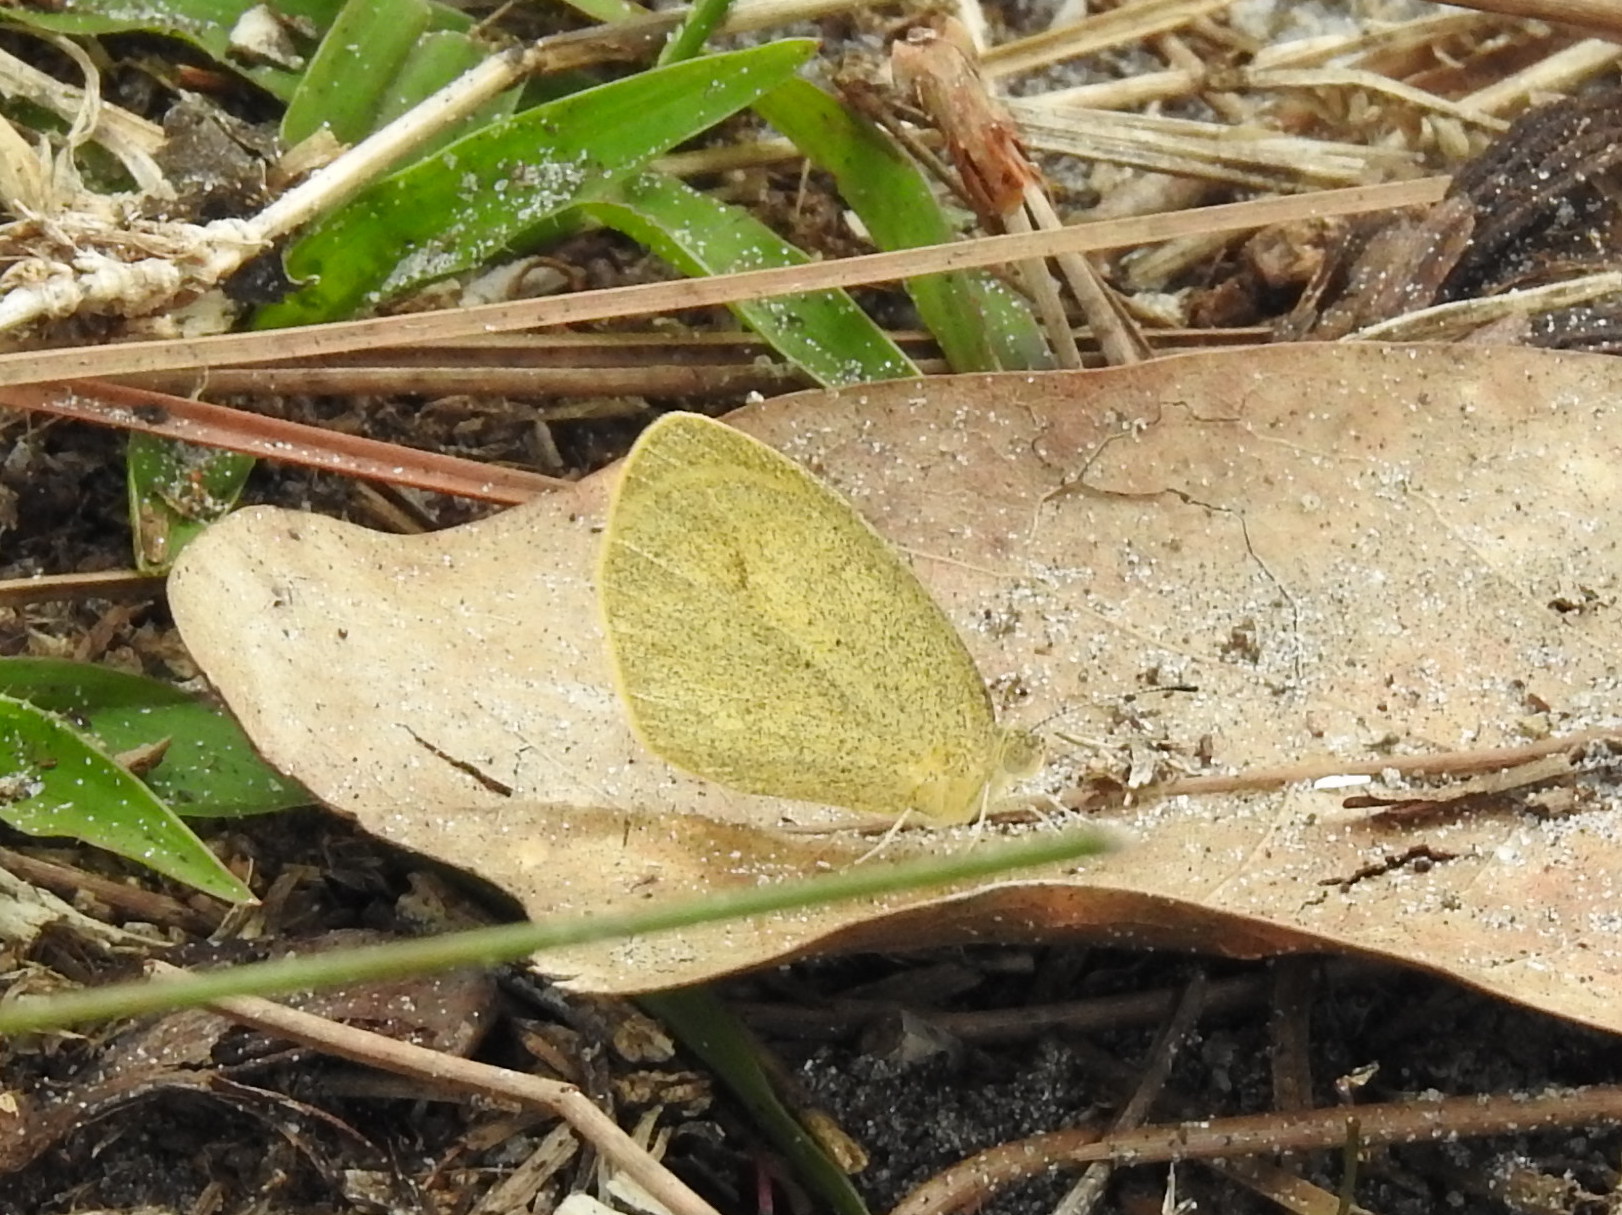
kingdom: Animalia
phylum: Arthropoda
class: Insecta
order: Lepidoptera
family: Pieridae
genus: Eurema
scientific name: Eurema daira
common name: Barred sulphur
